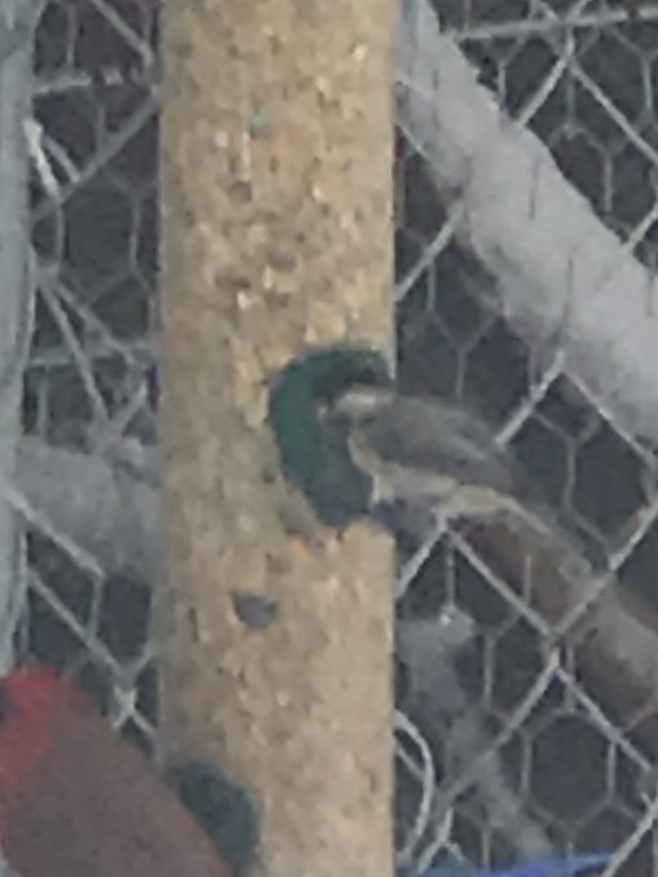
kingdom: Animalia
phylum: Chordata
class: Aves
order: Passeriformes
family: Paridae
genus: Poecile
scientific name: Poecile carolinensis
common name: Carolina chickadee
